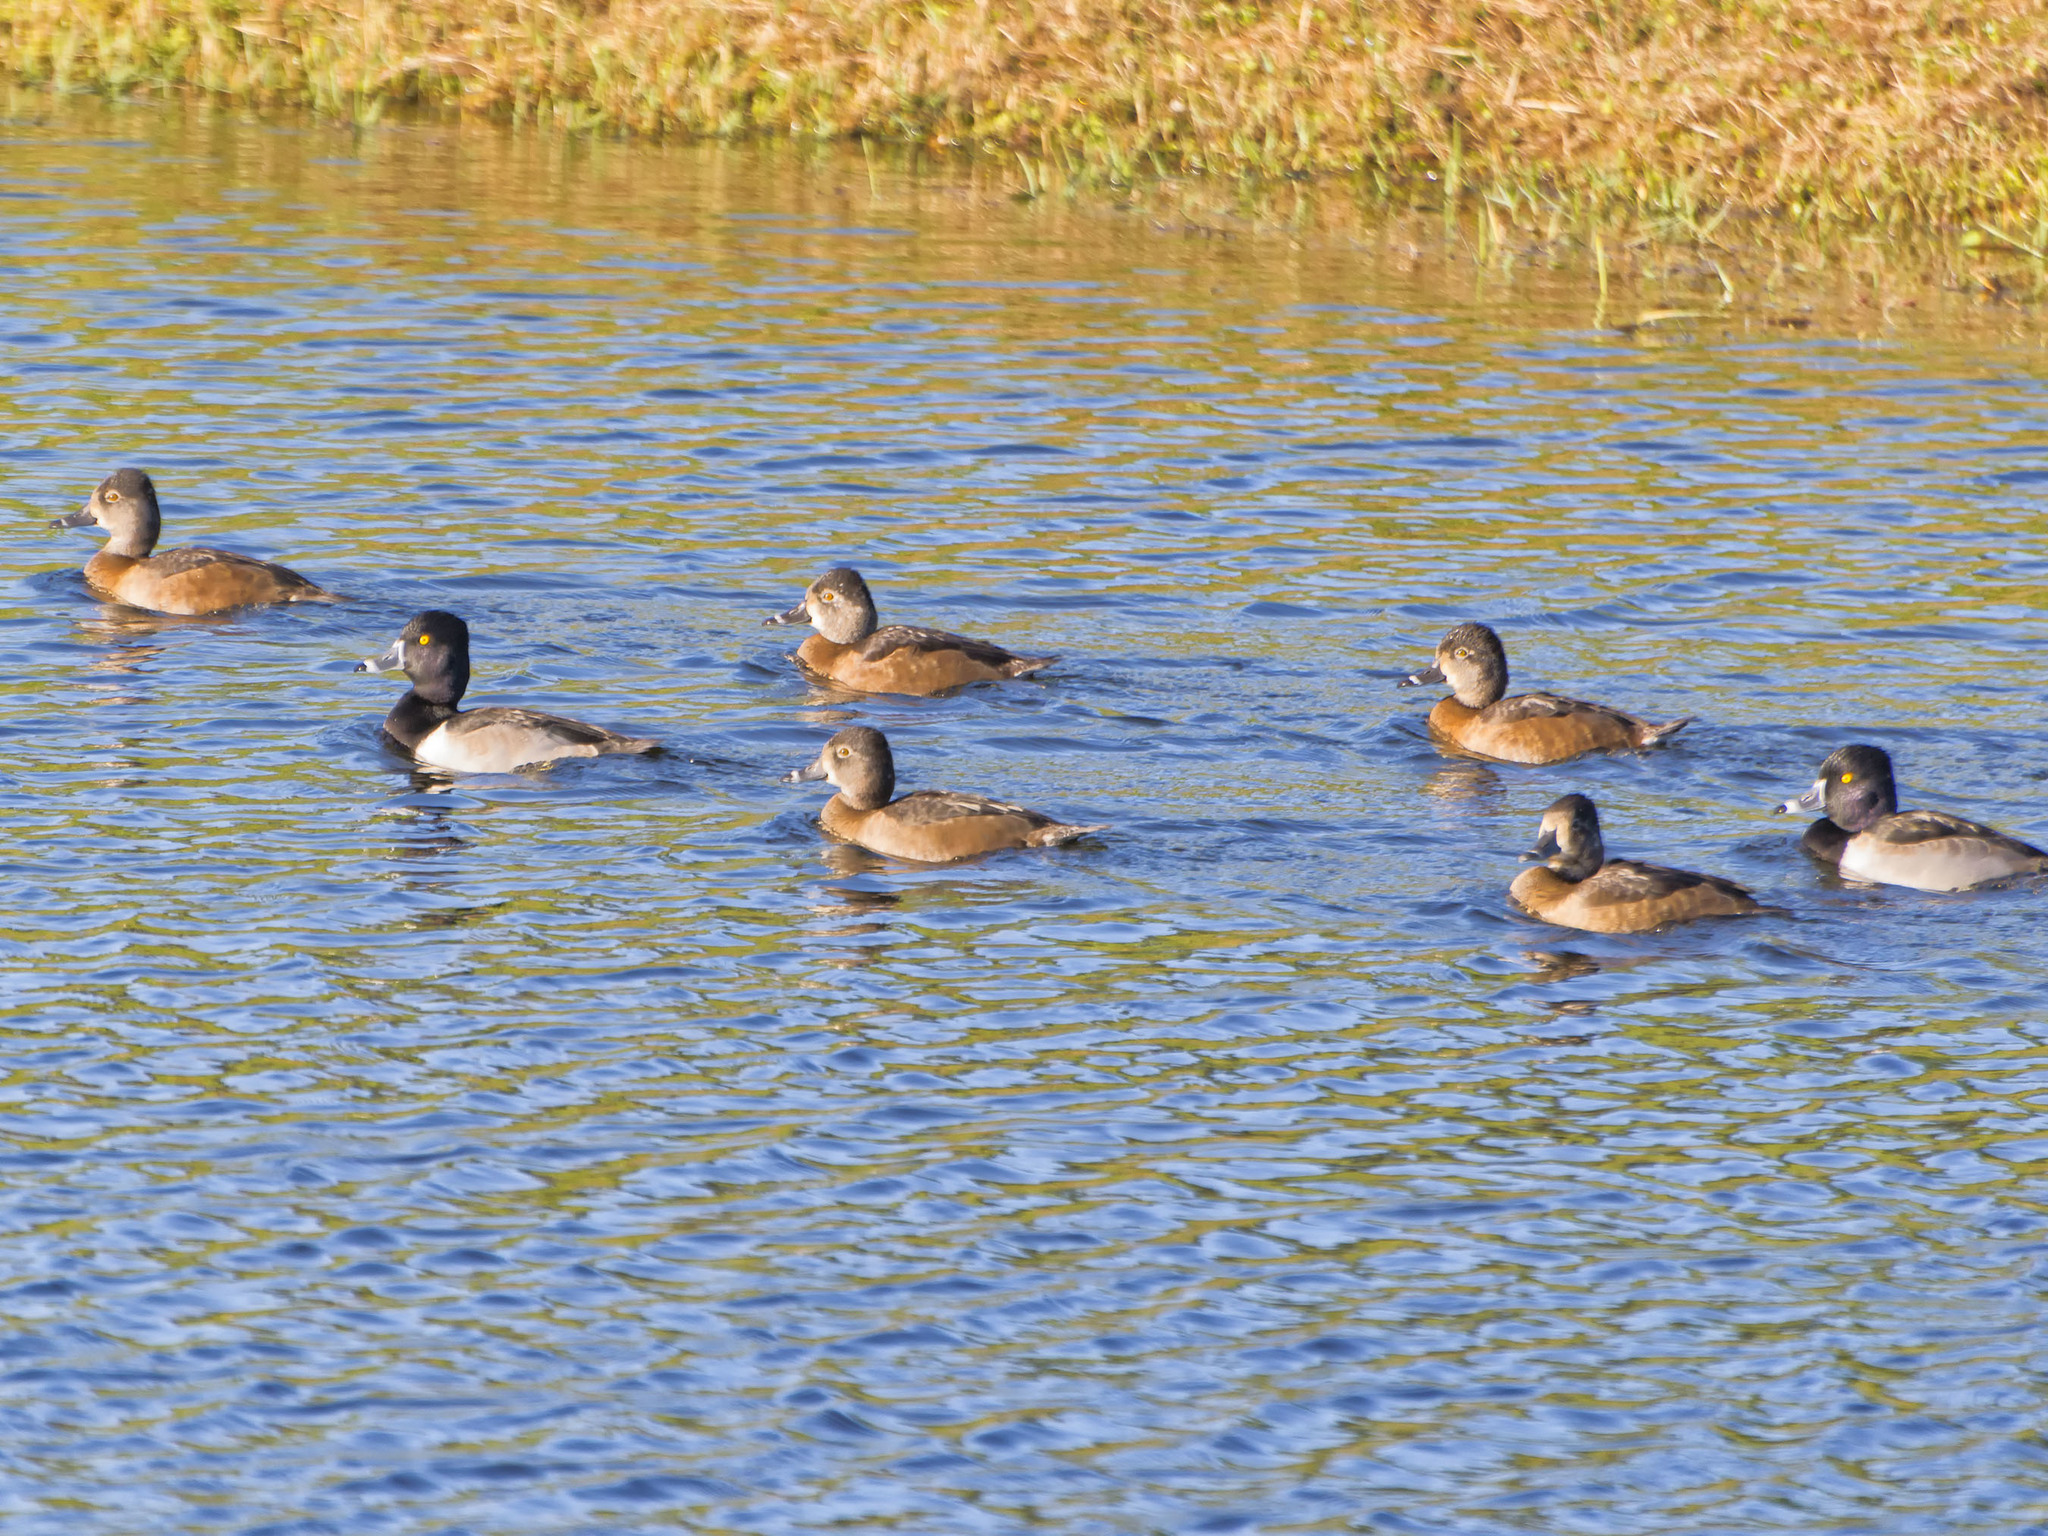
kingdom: Animalia
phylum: Chordata
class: Aves
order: Anseriformes
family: Anatidae
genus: Aythya
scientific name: Aythya collaris
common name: Ring-necked duck
